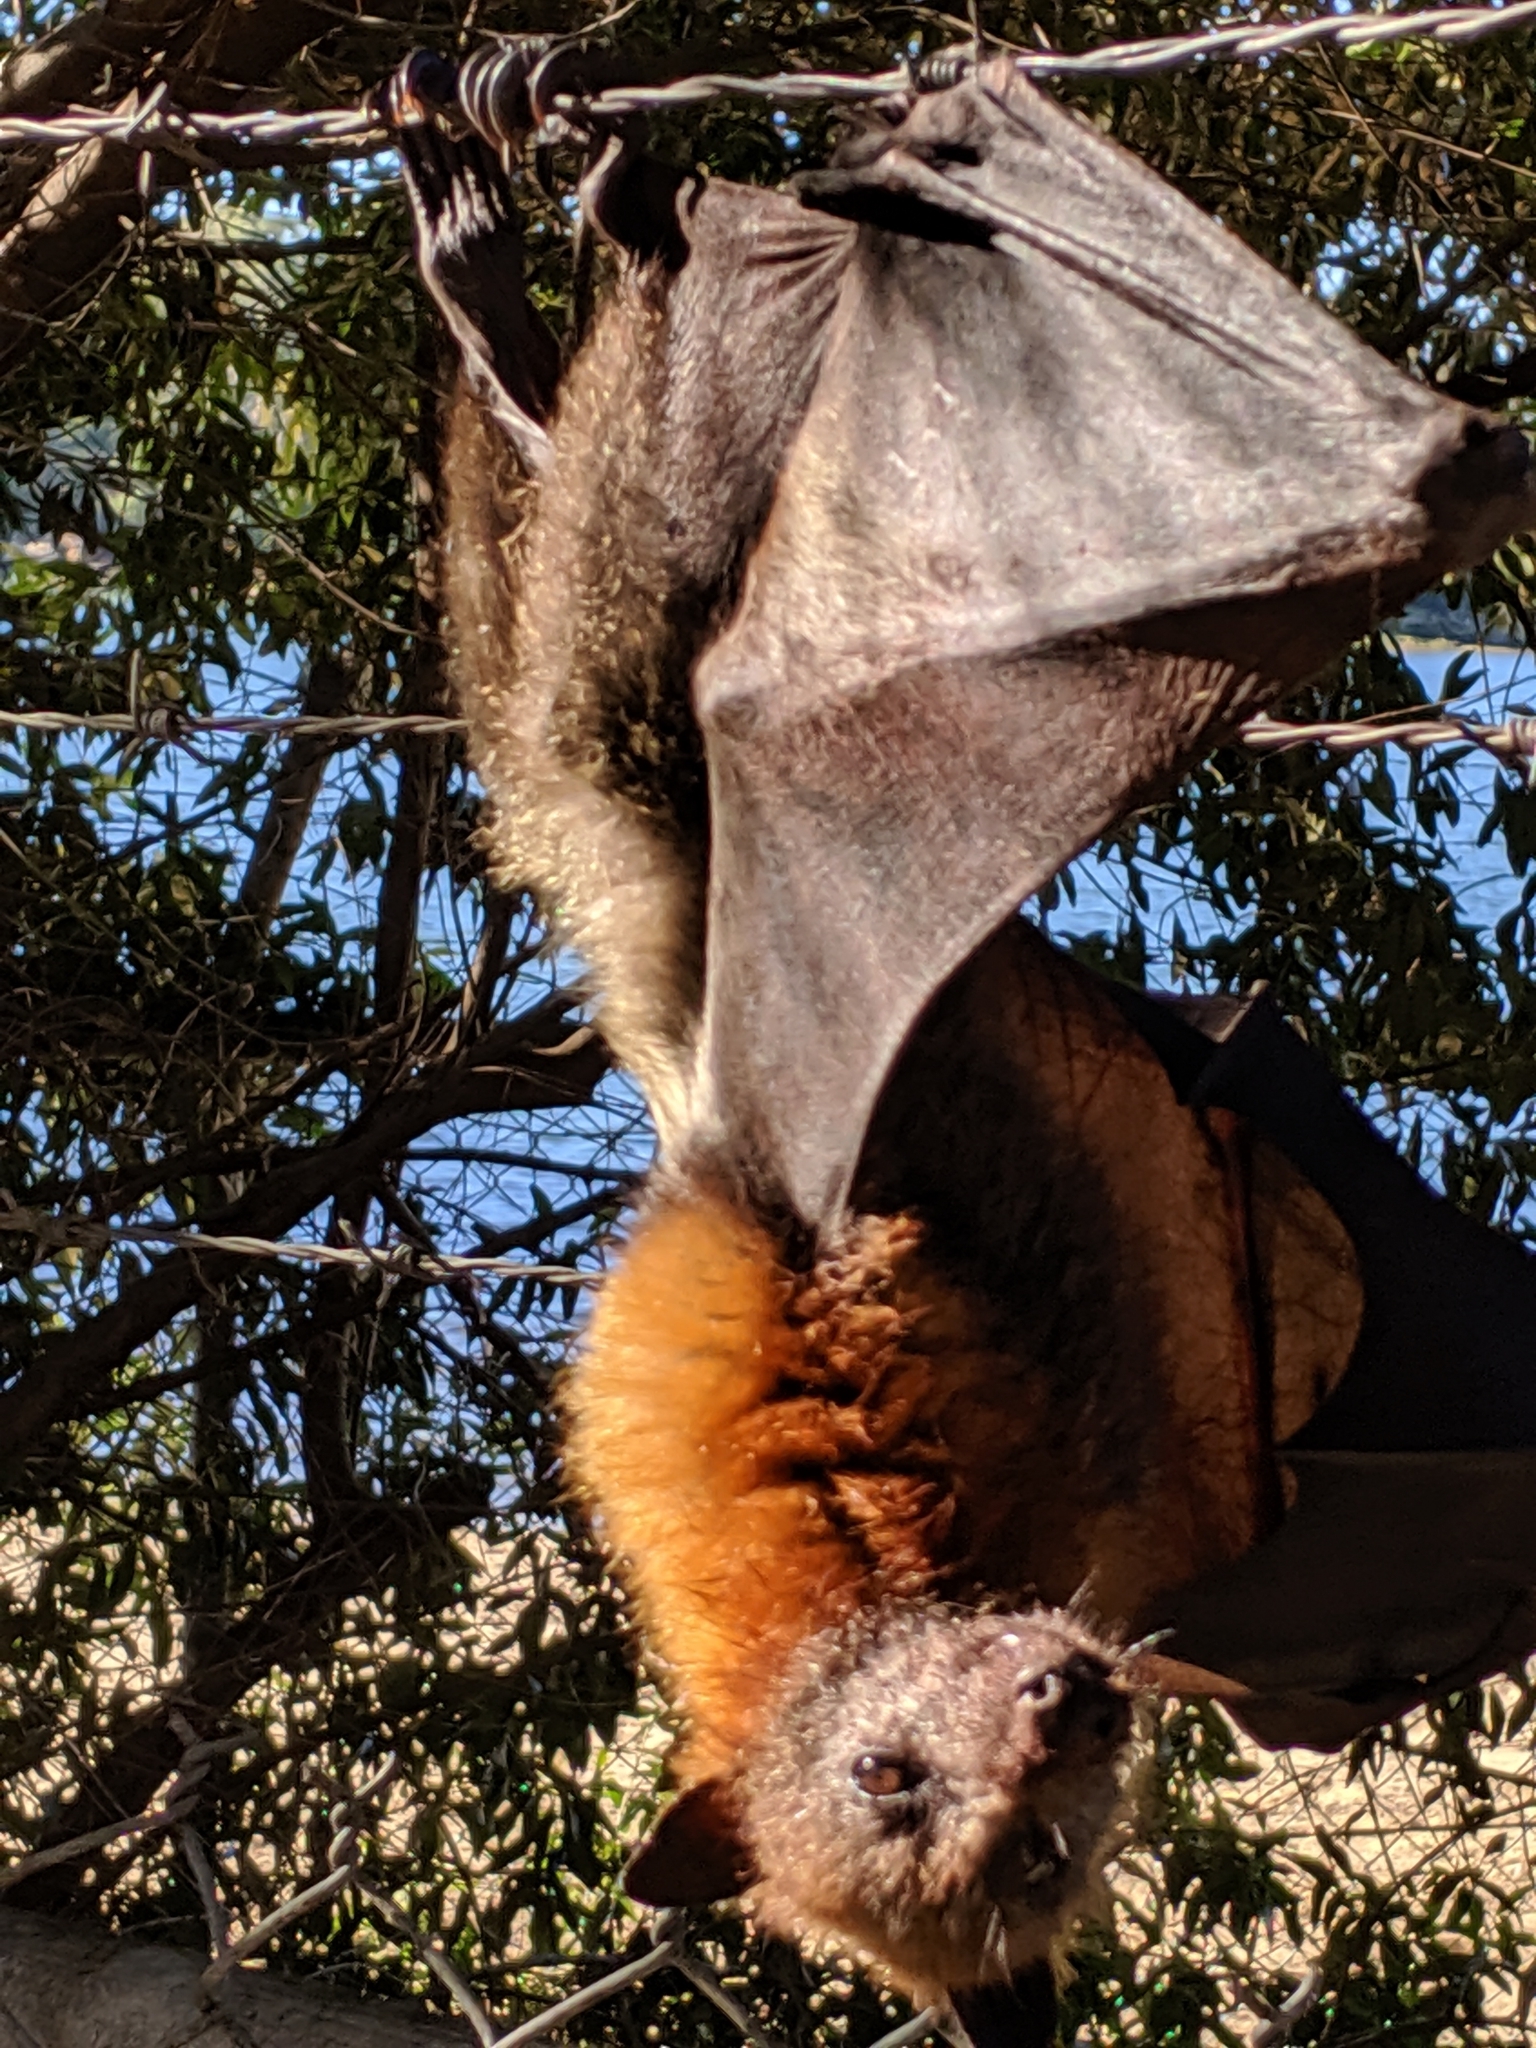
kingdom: Animalia
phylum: Chordata
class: Mammalia
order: Chiroptera
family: Pteropodidae
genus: Pteropus
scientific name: Pteropus poliocephalus
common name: Gray-headed flying fox
